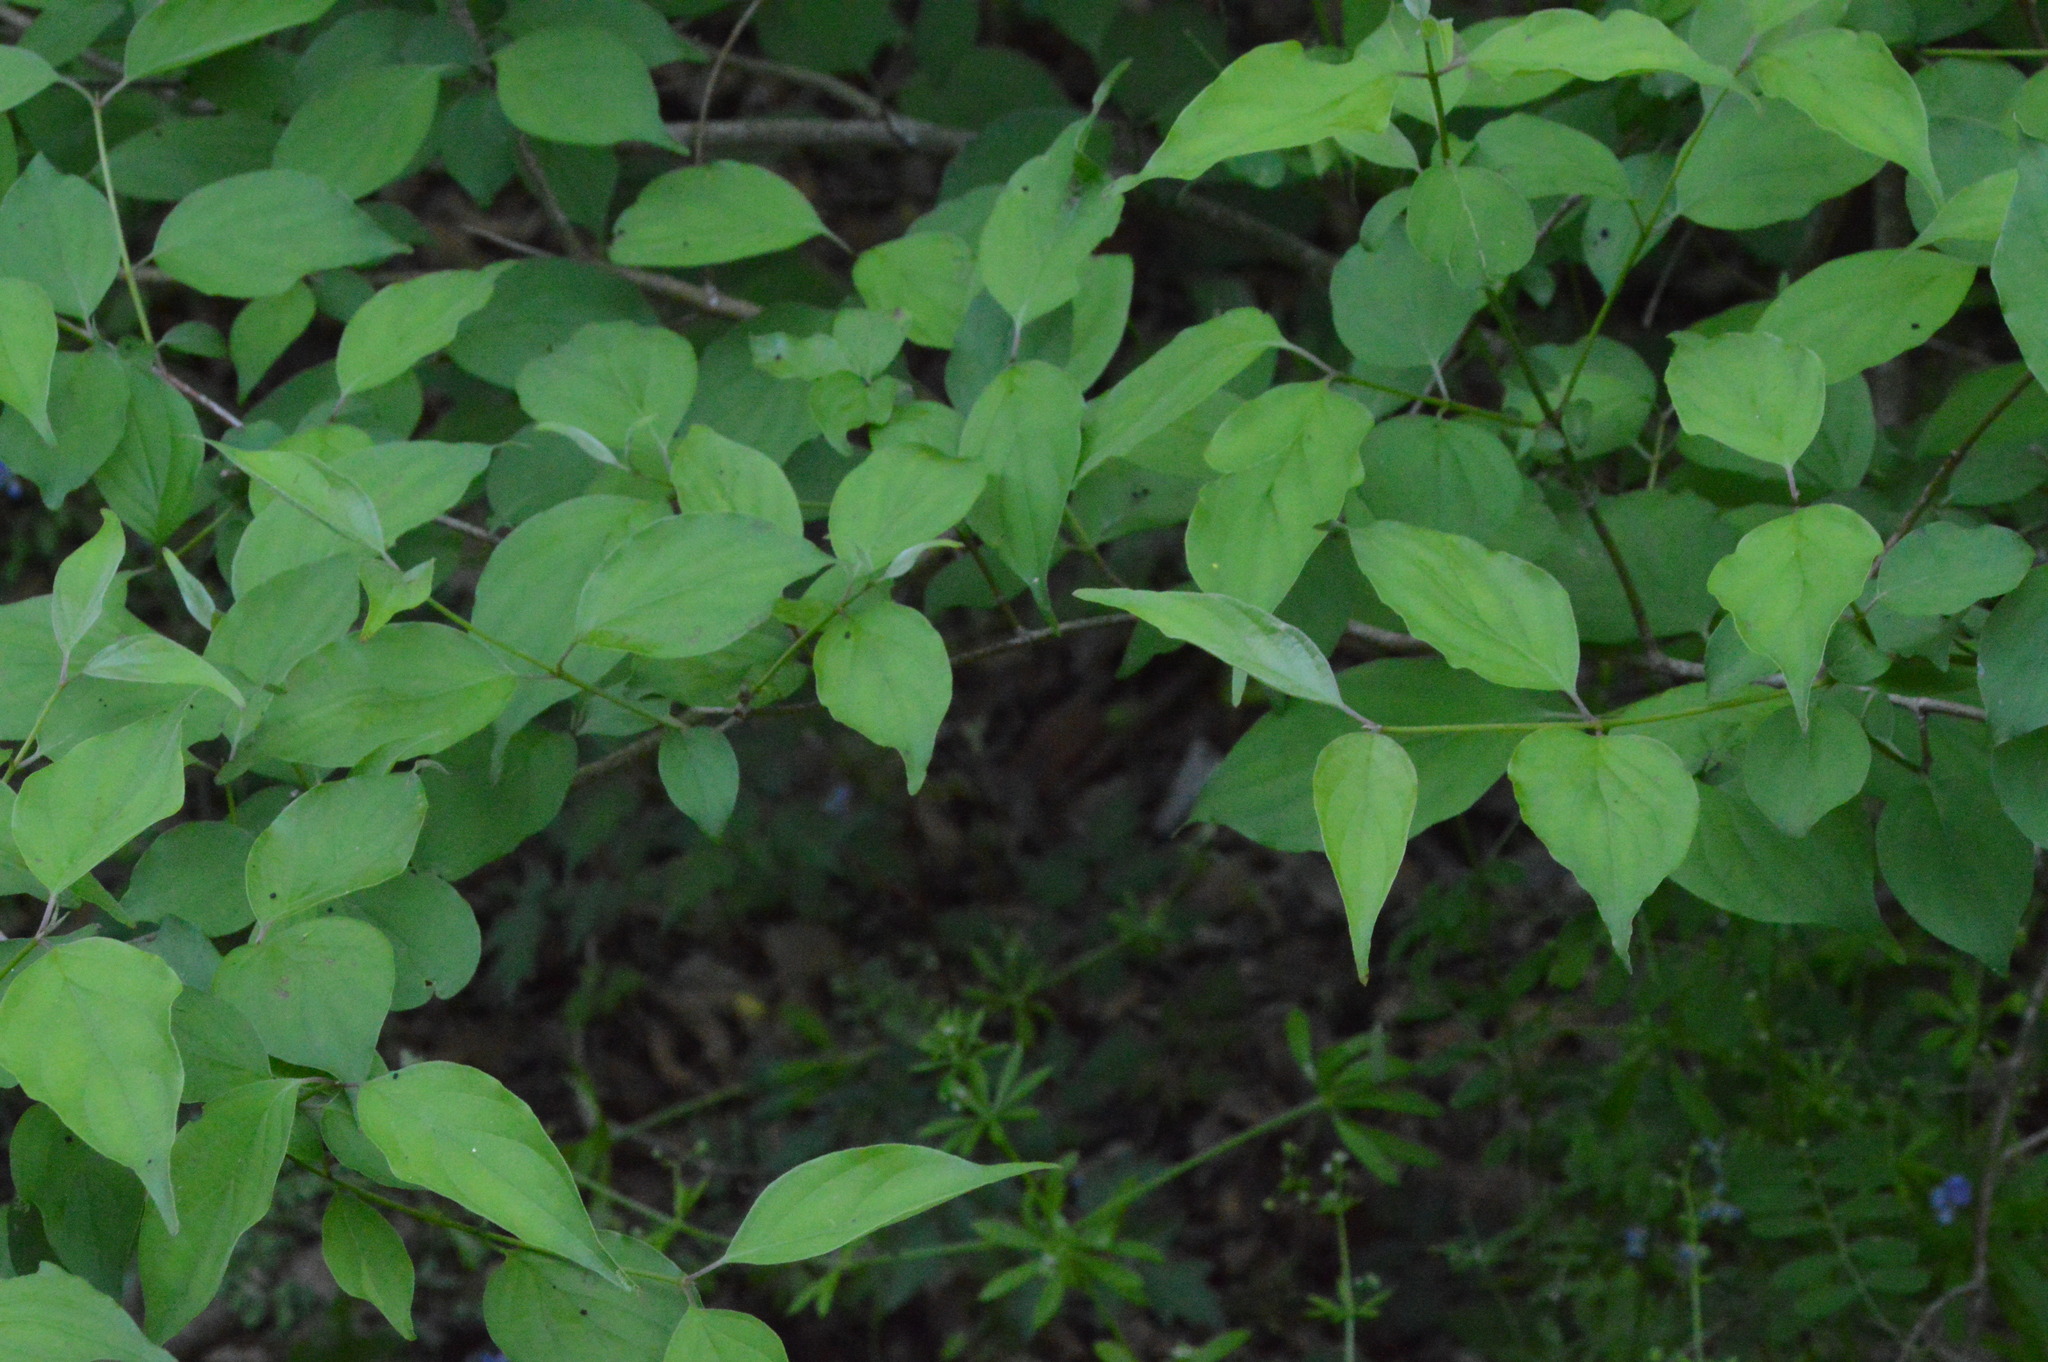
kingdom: Plantae
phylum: Tracheophyta
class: Magnoliopsida
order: Cornales
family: Cornaceae
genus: Cornus
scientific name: Cornus drummondii
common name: Rough-leaf dogwood
